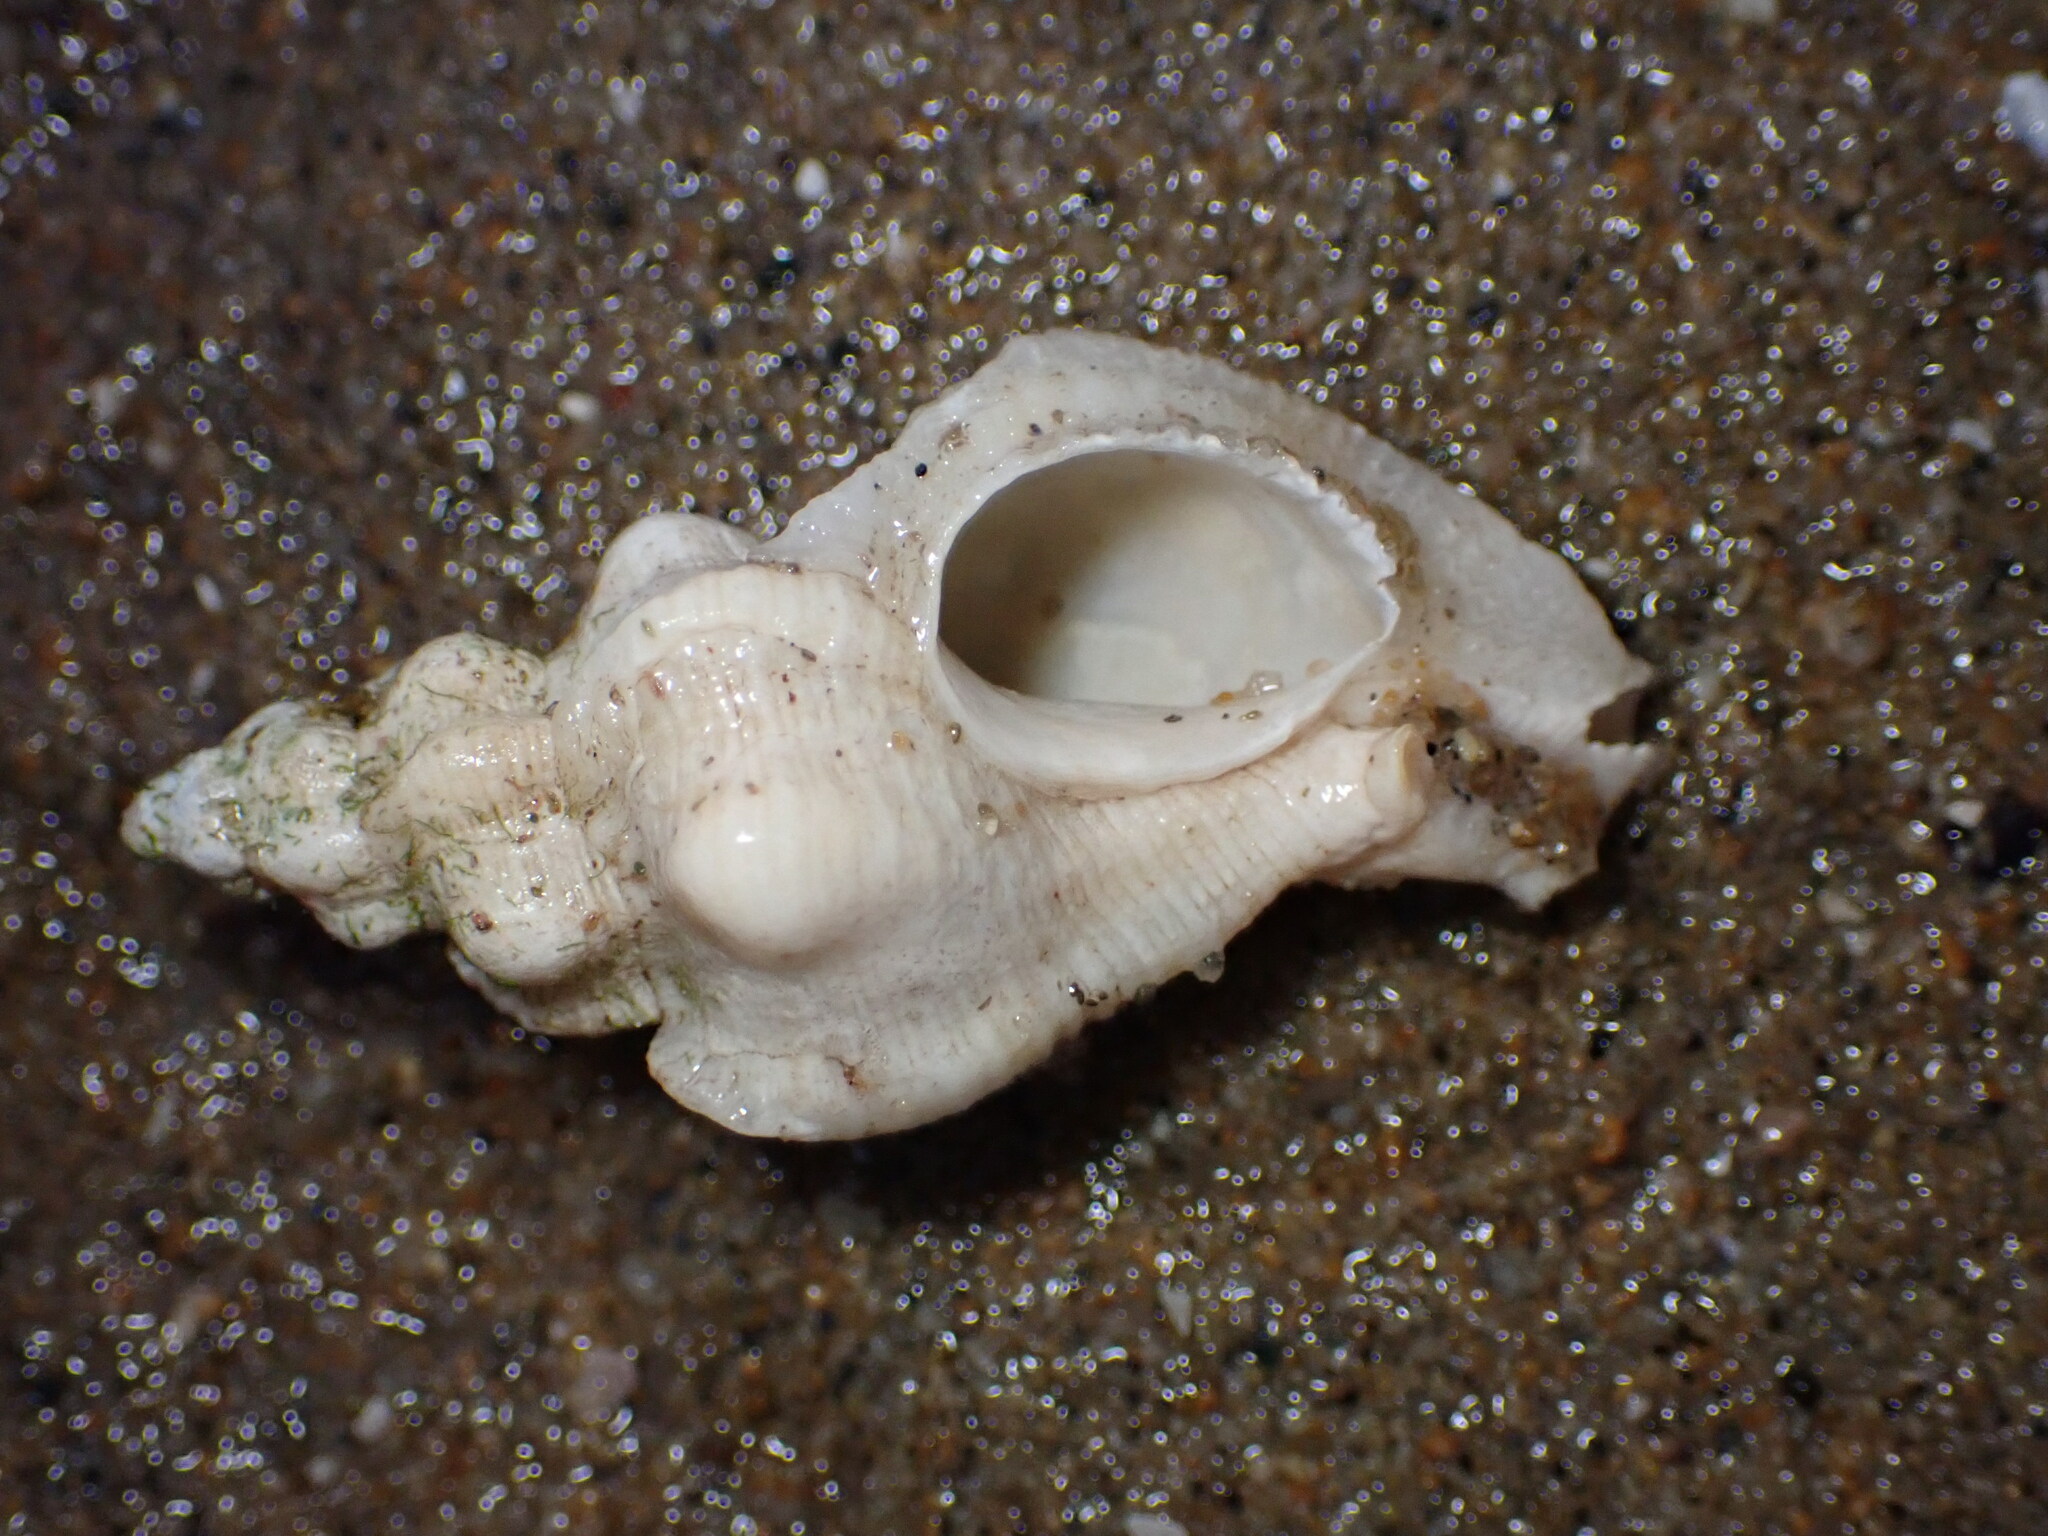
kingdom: Animalia
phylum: Mollusca
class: Gastropoda
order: Neogastropoda
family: Muricidae
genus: Pteropurpura
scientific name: Pteropurpura festiva
